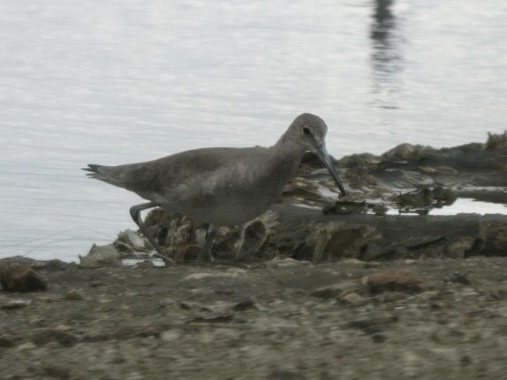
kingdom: Animalia
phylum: Chordata
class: Aves
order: Charadriiformes
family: Scolopacidae
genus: Tringa
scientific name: Tringa semipalmata
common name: Willet
